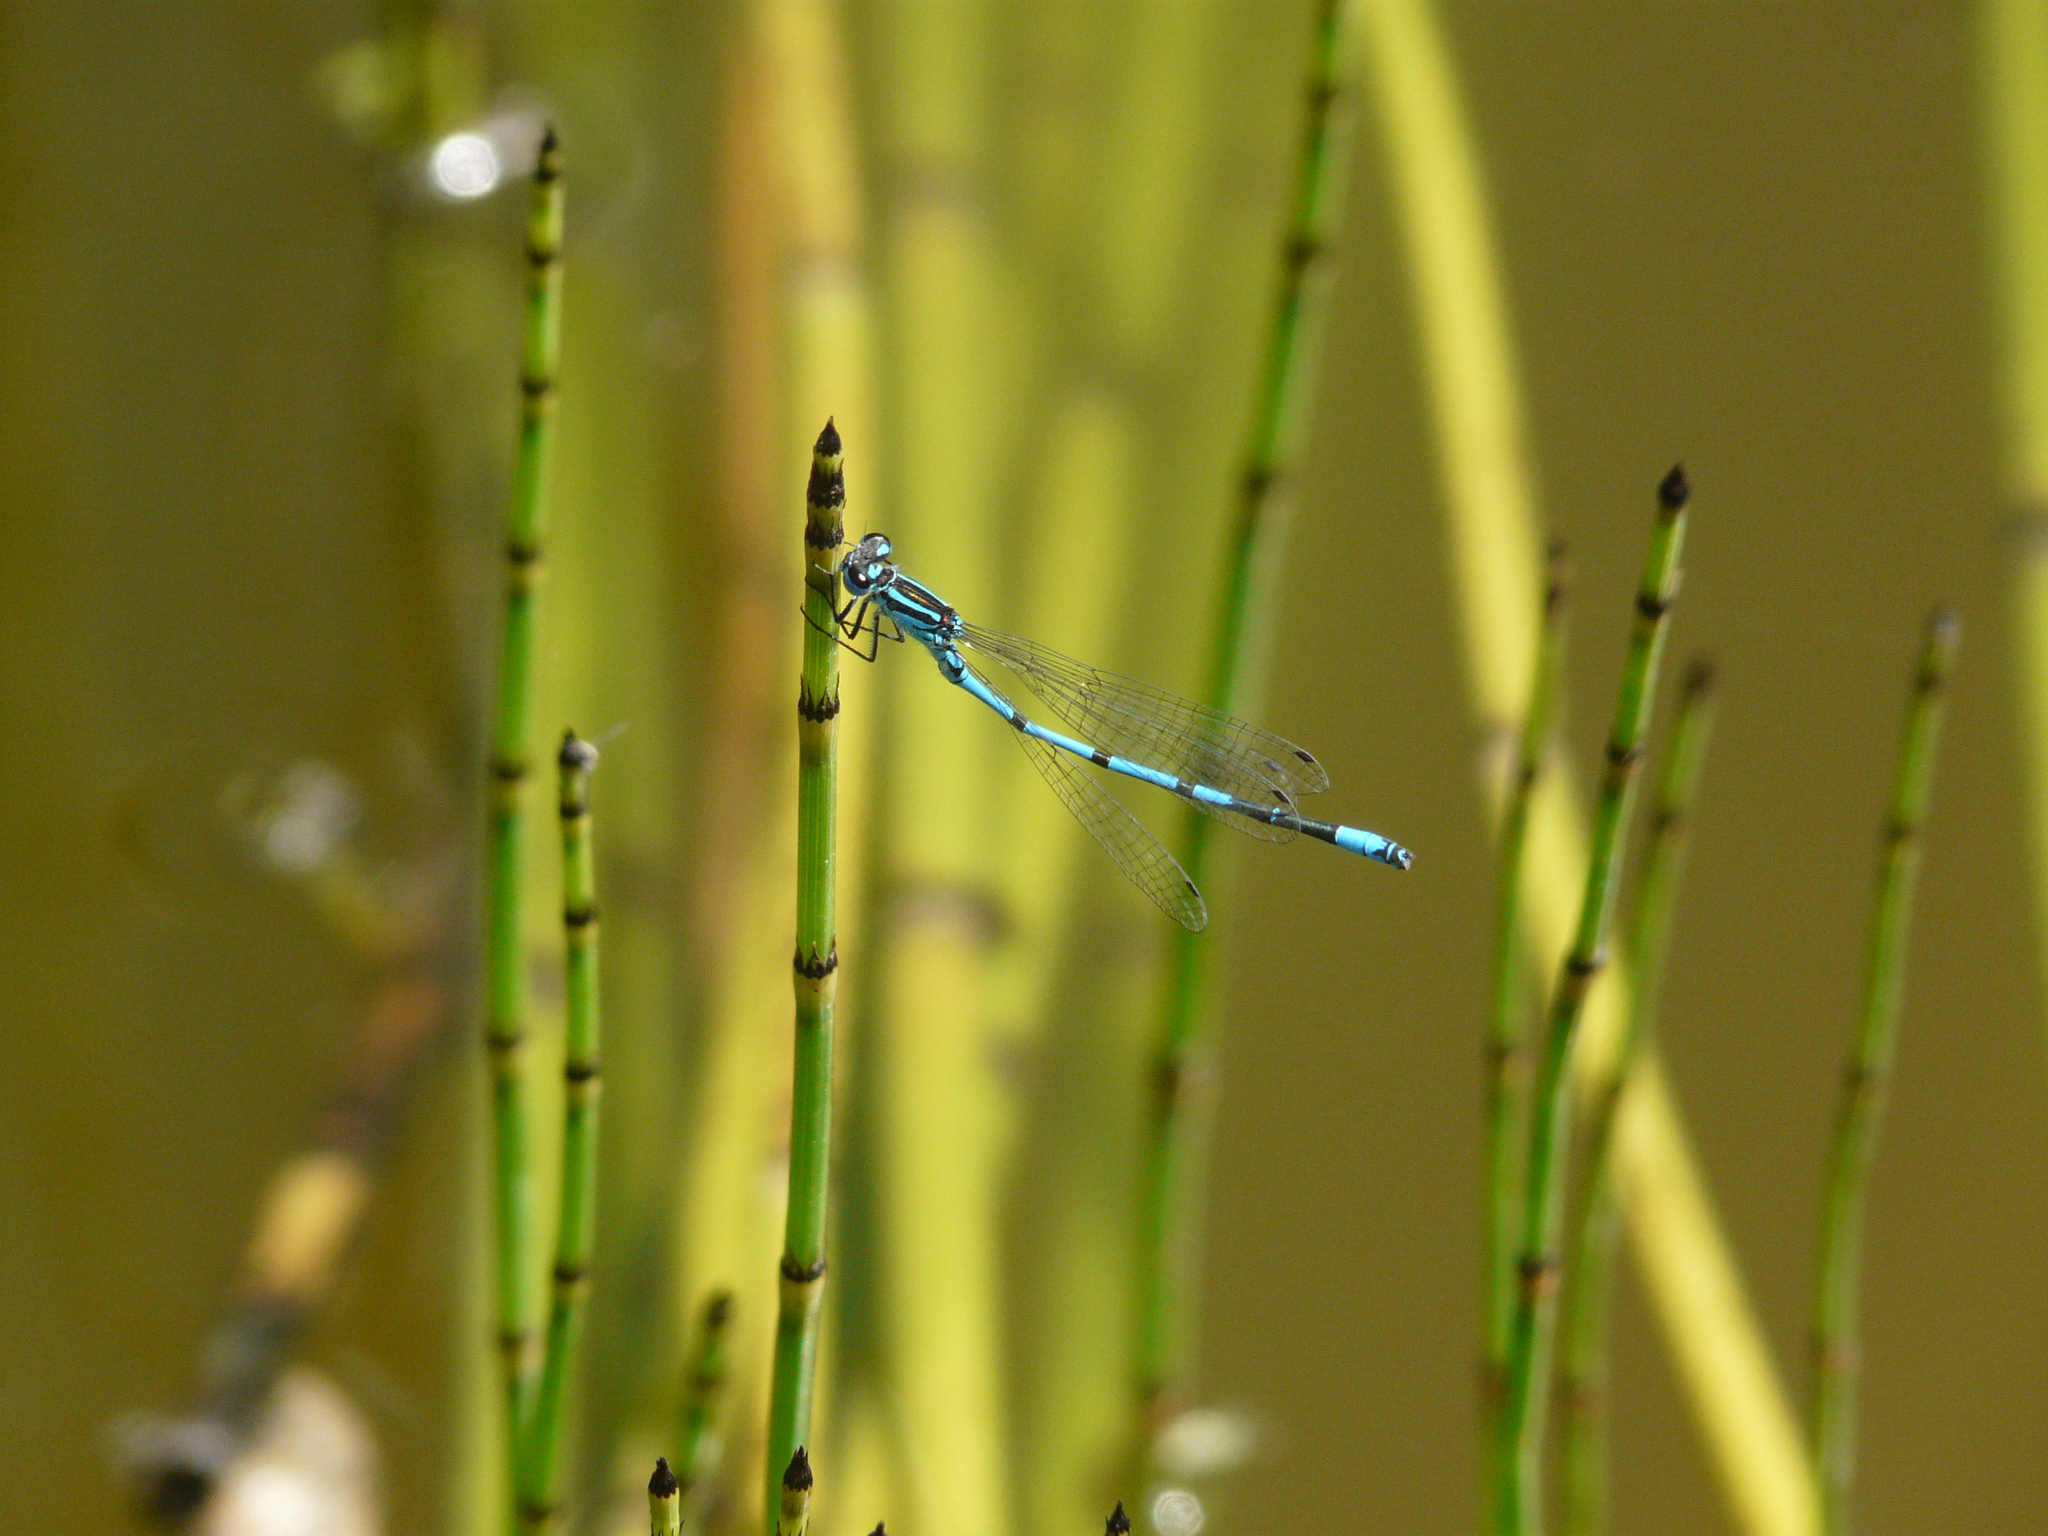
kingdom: Animalia
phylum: Arthropoda
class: Insecta
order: Odonata
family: Coenagrionidae
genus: Coenagrion
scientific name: Coenagrion puella
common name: Azure damselfly
